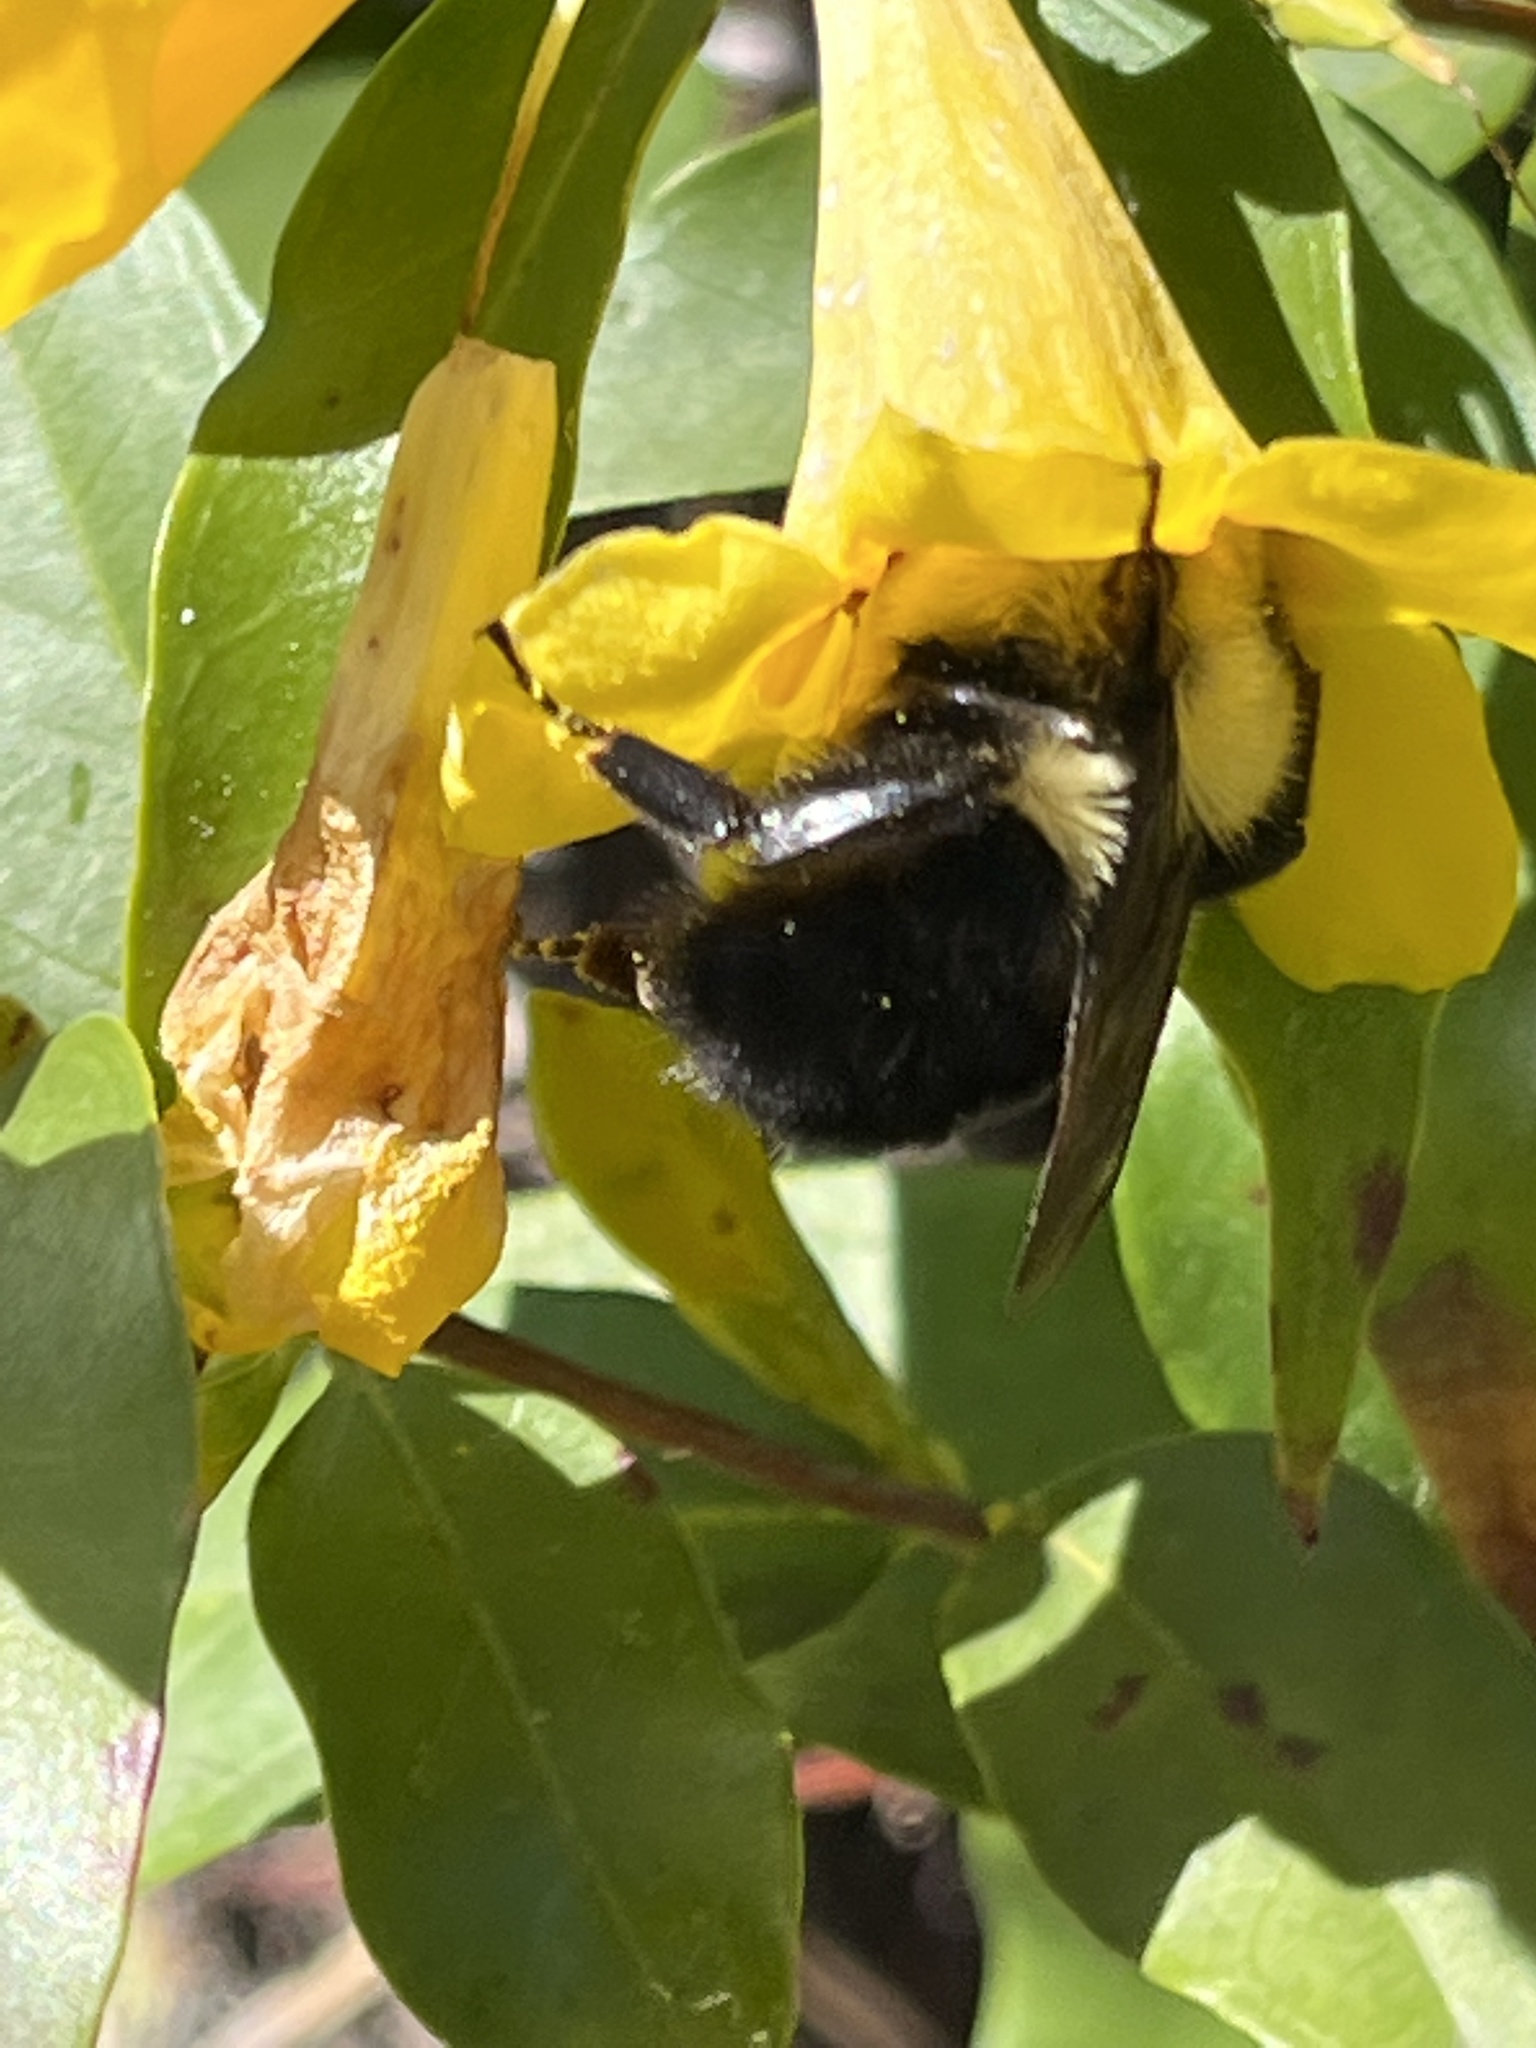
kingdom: Animalia
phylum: Arthropoda
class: Insecta
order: Hymenoptera
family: Apidae
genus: Bombus
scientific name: Bombus bimaculatus
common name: Two-spotted bumble bee
